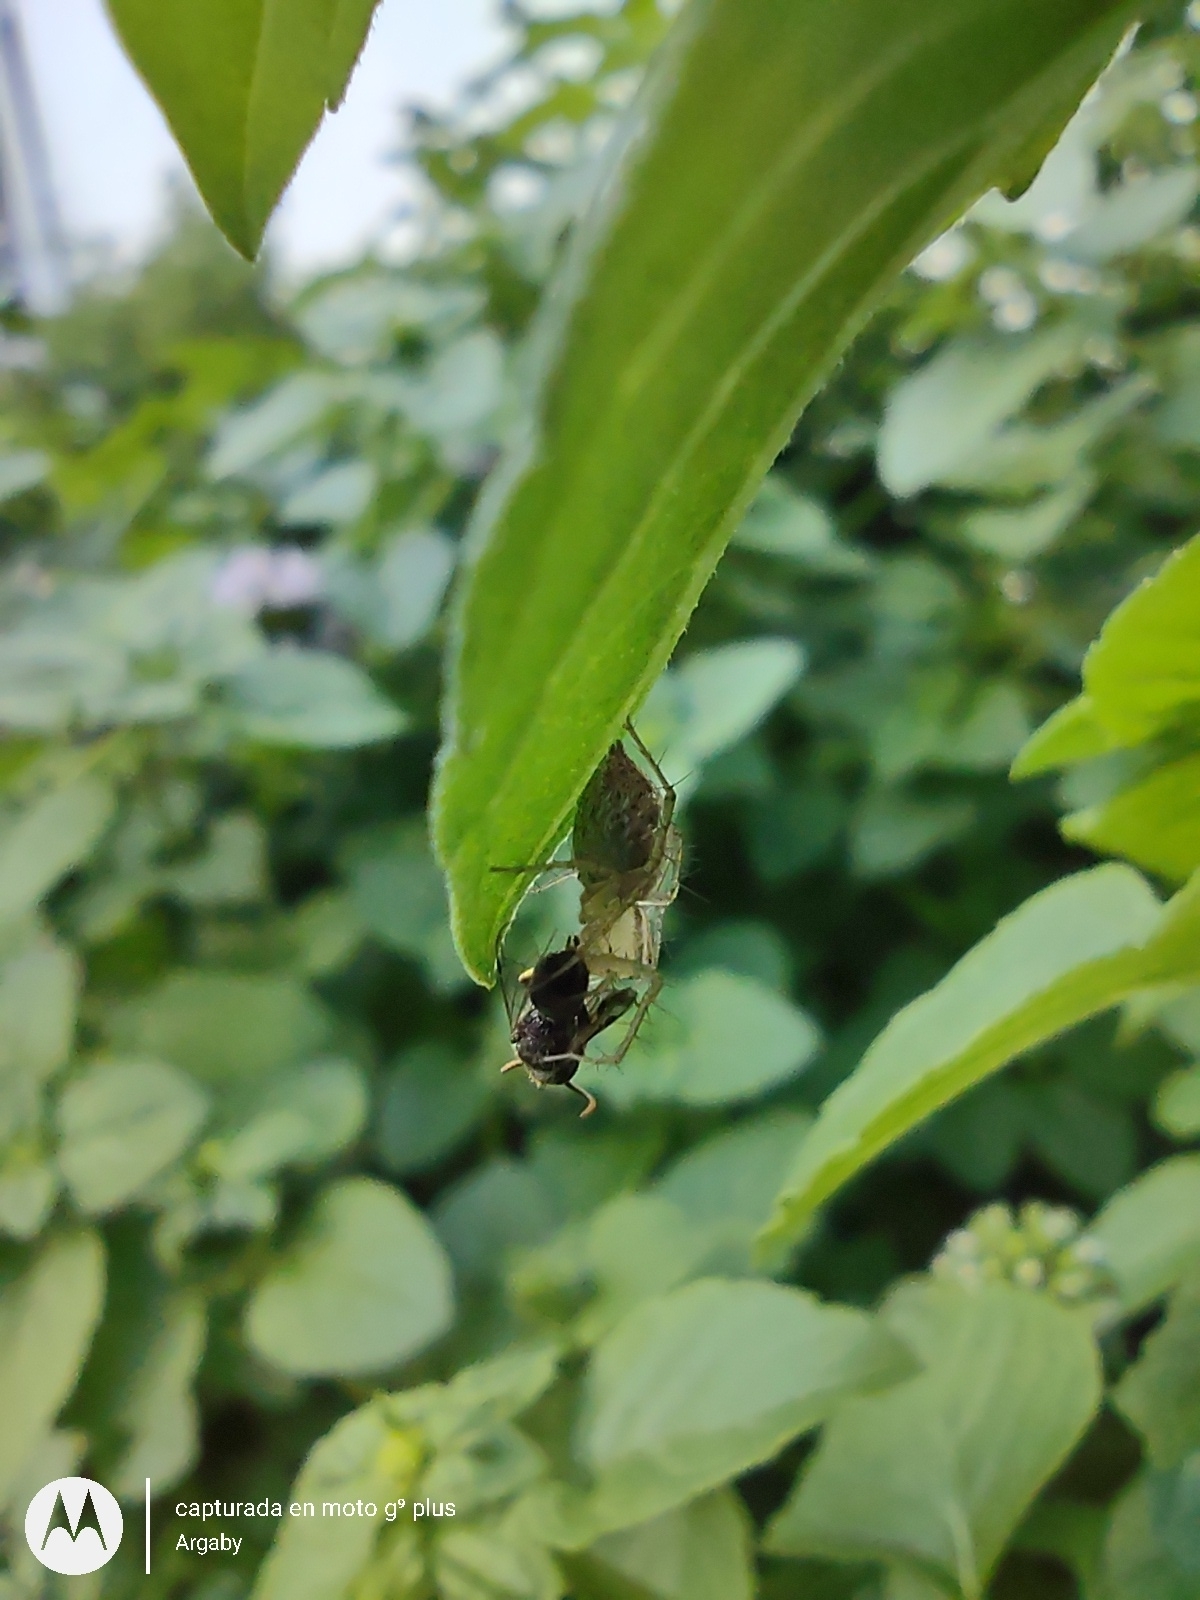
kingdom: Animalia
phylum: Arthropoda
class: Arachnida
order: Araneae
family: Oxyopidae
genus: Oxyopes
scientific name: Oxyopes salticus
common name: Lynx spiders
